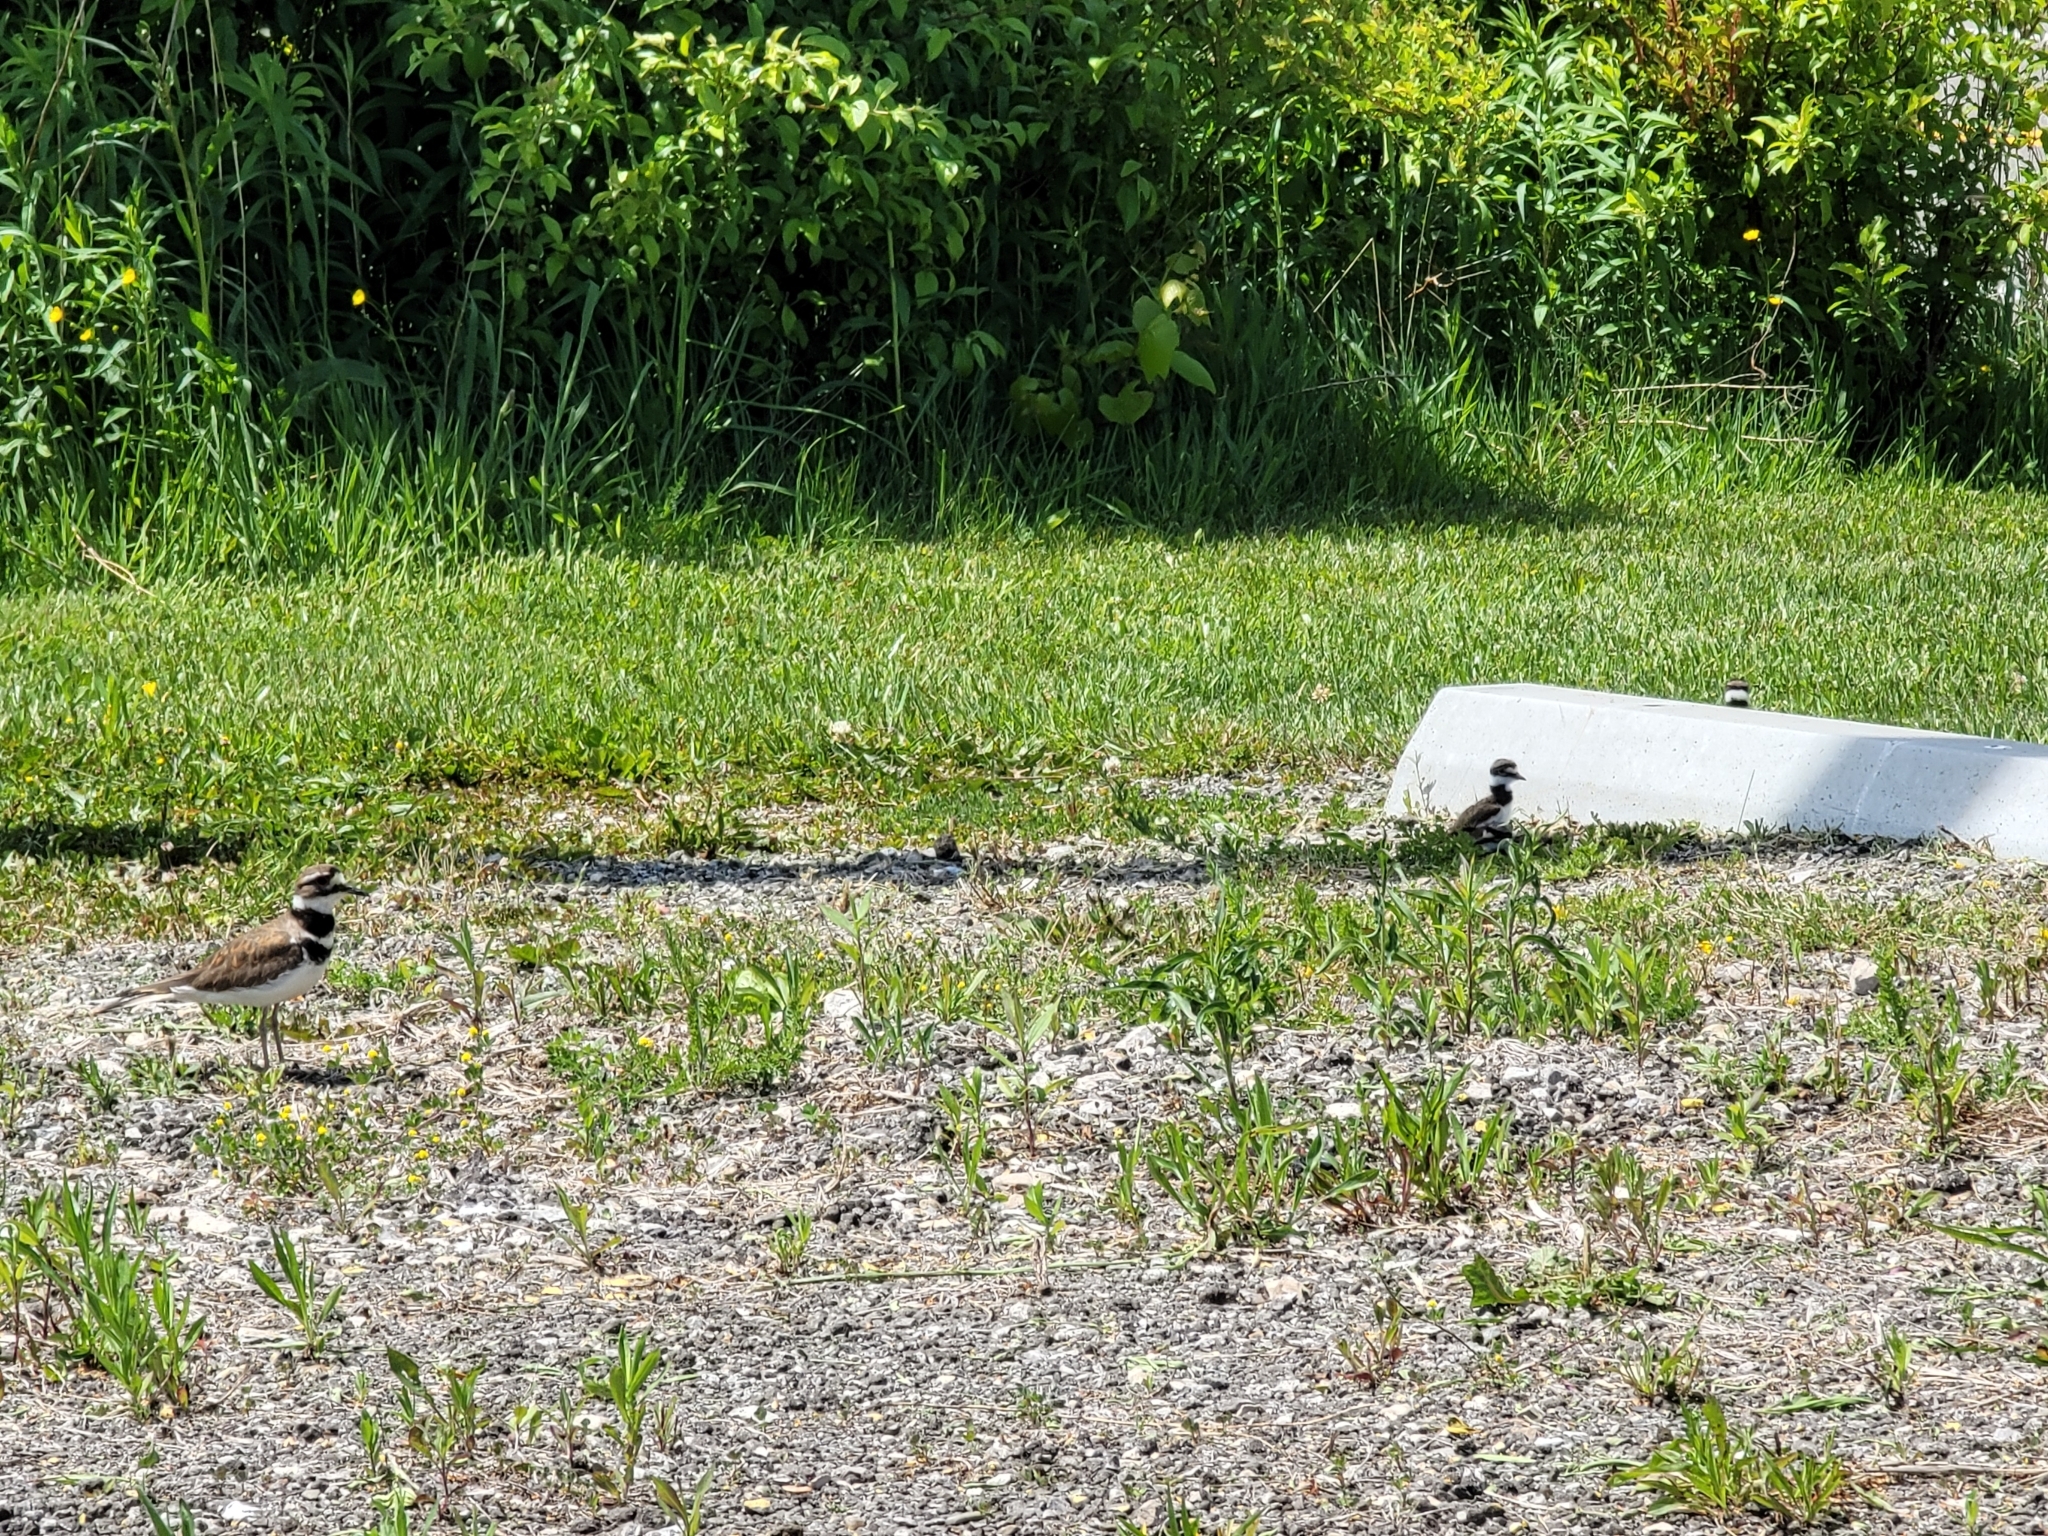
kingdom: Animalia
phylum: Chordata
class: Aves
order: Charadriiformes
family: Charadriidae
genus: Charadrius
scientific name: Charadrius vociferus
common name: Killdeer
